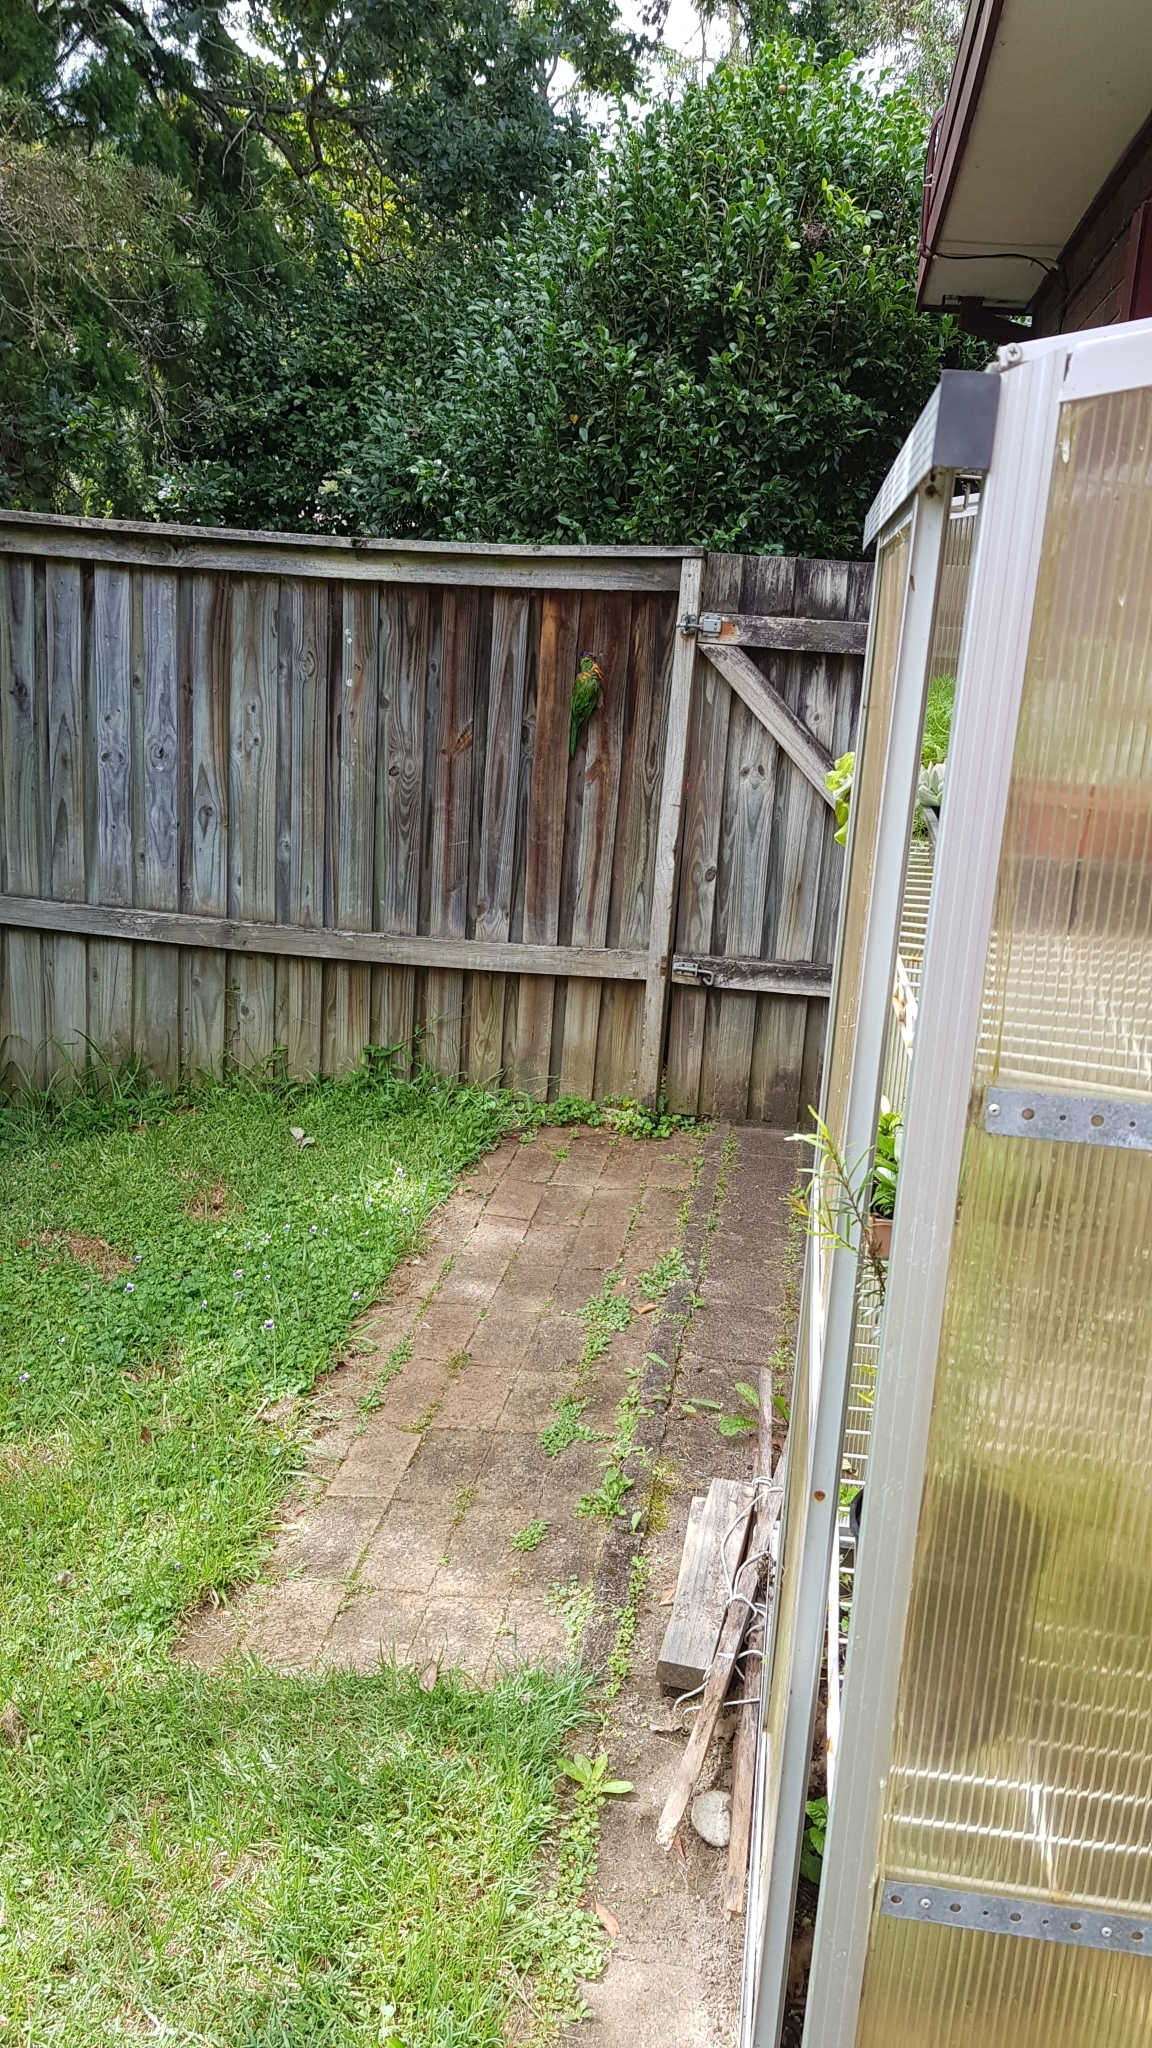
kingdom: Animalia
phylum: Chordata
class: Aves
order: Psittaciformes
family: Psittacidae
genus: Trichoglossus
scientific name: Trichoglossus haematodus
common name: Coconut lorikeet
